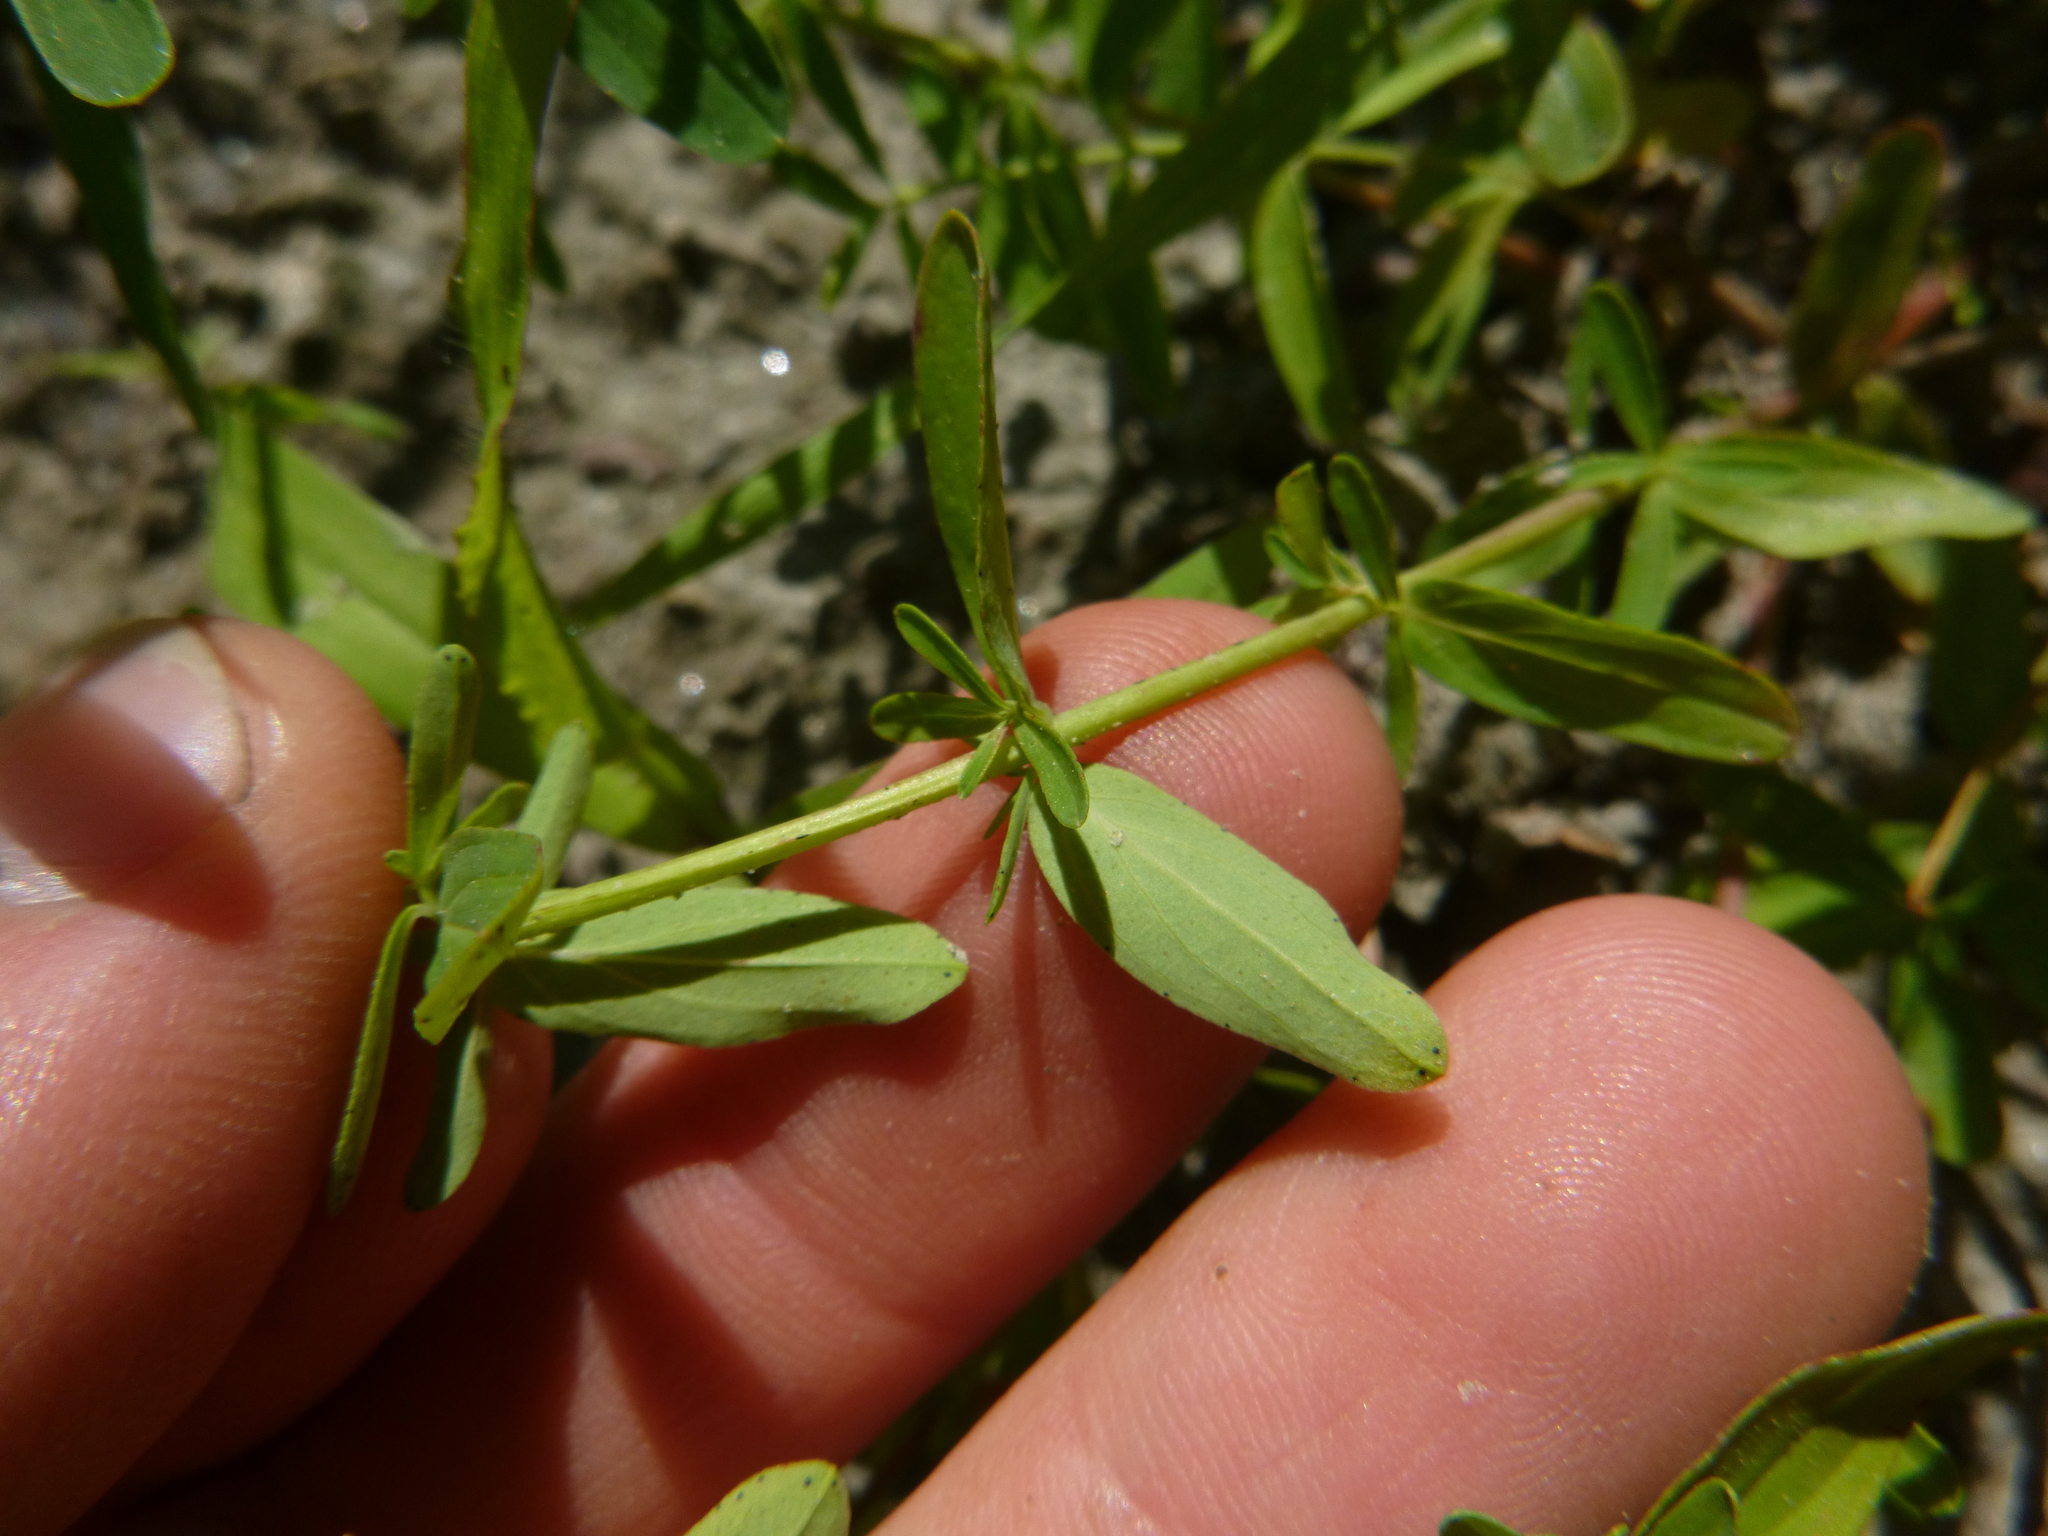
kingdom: Plantae
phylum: Tracheophyta
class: Magnoliopsida
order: Malpighiales
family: Hypericaceae
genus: Hypericum
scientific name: Hypericum perforatum
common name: Common st. johnswort
